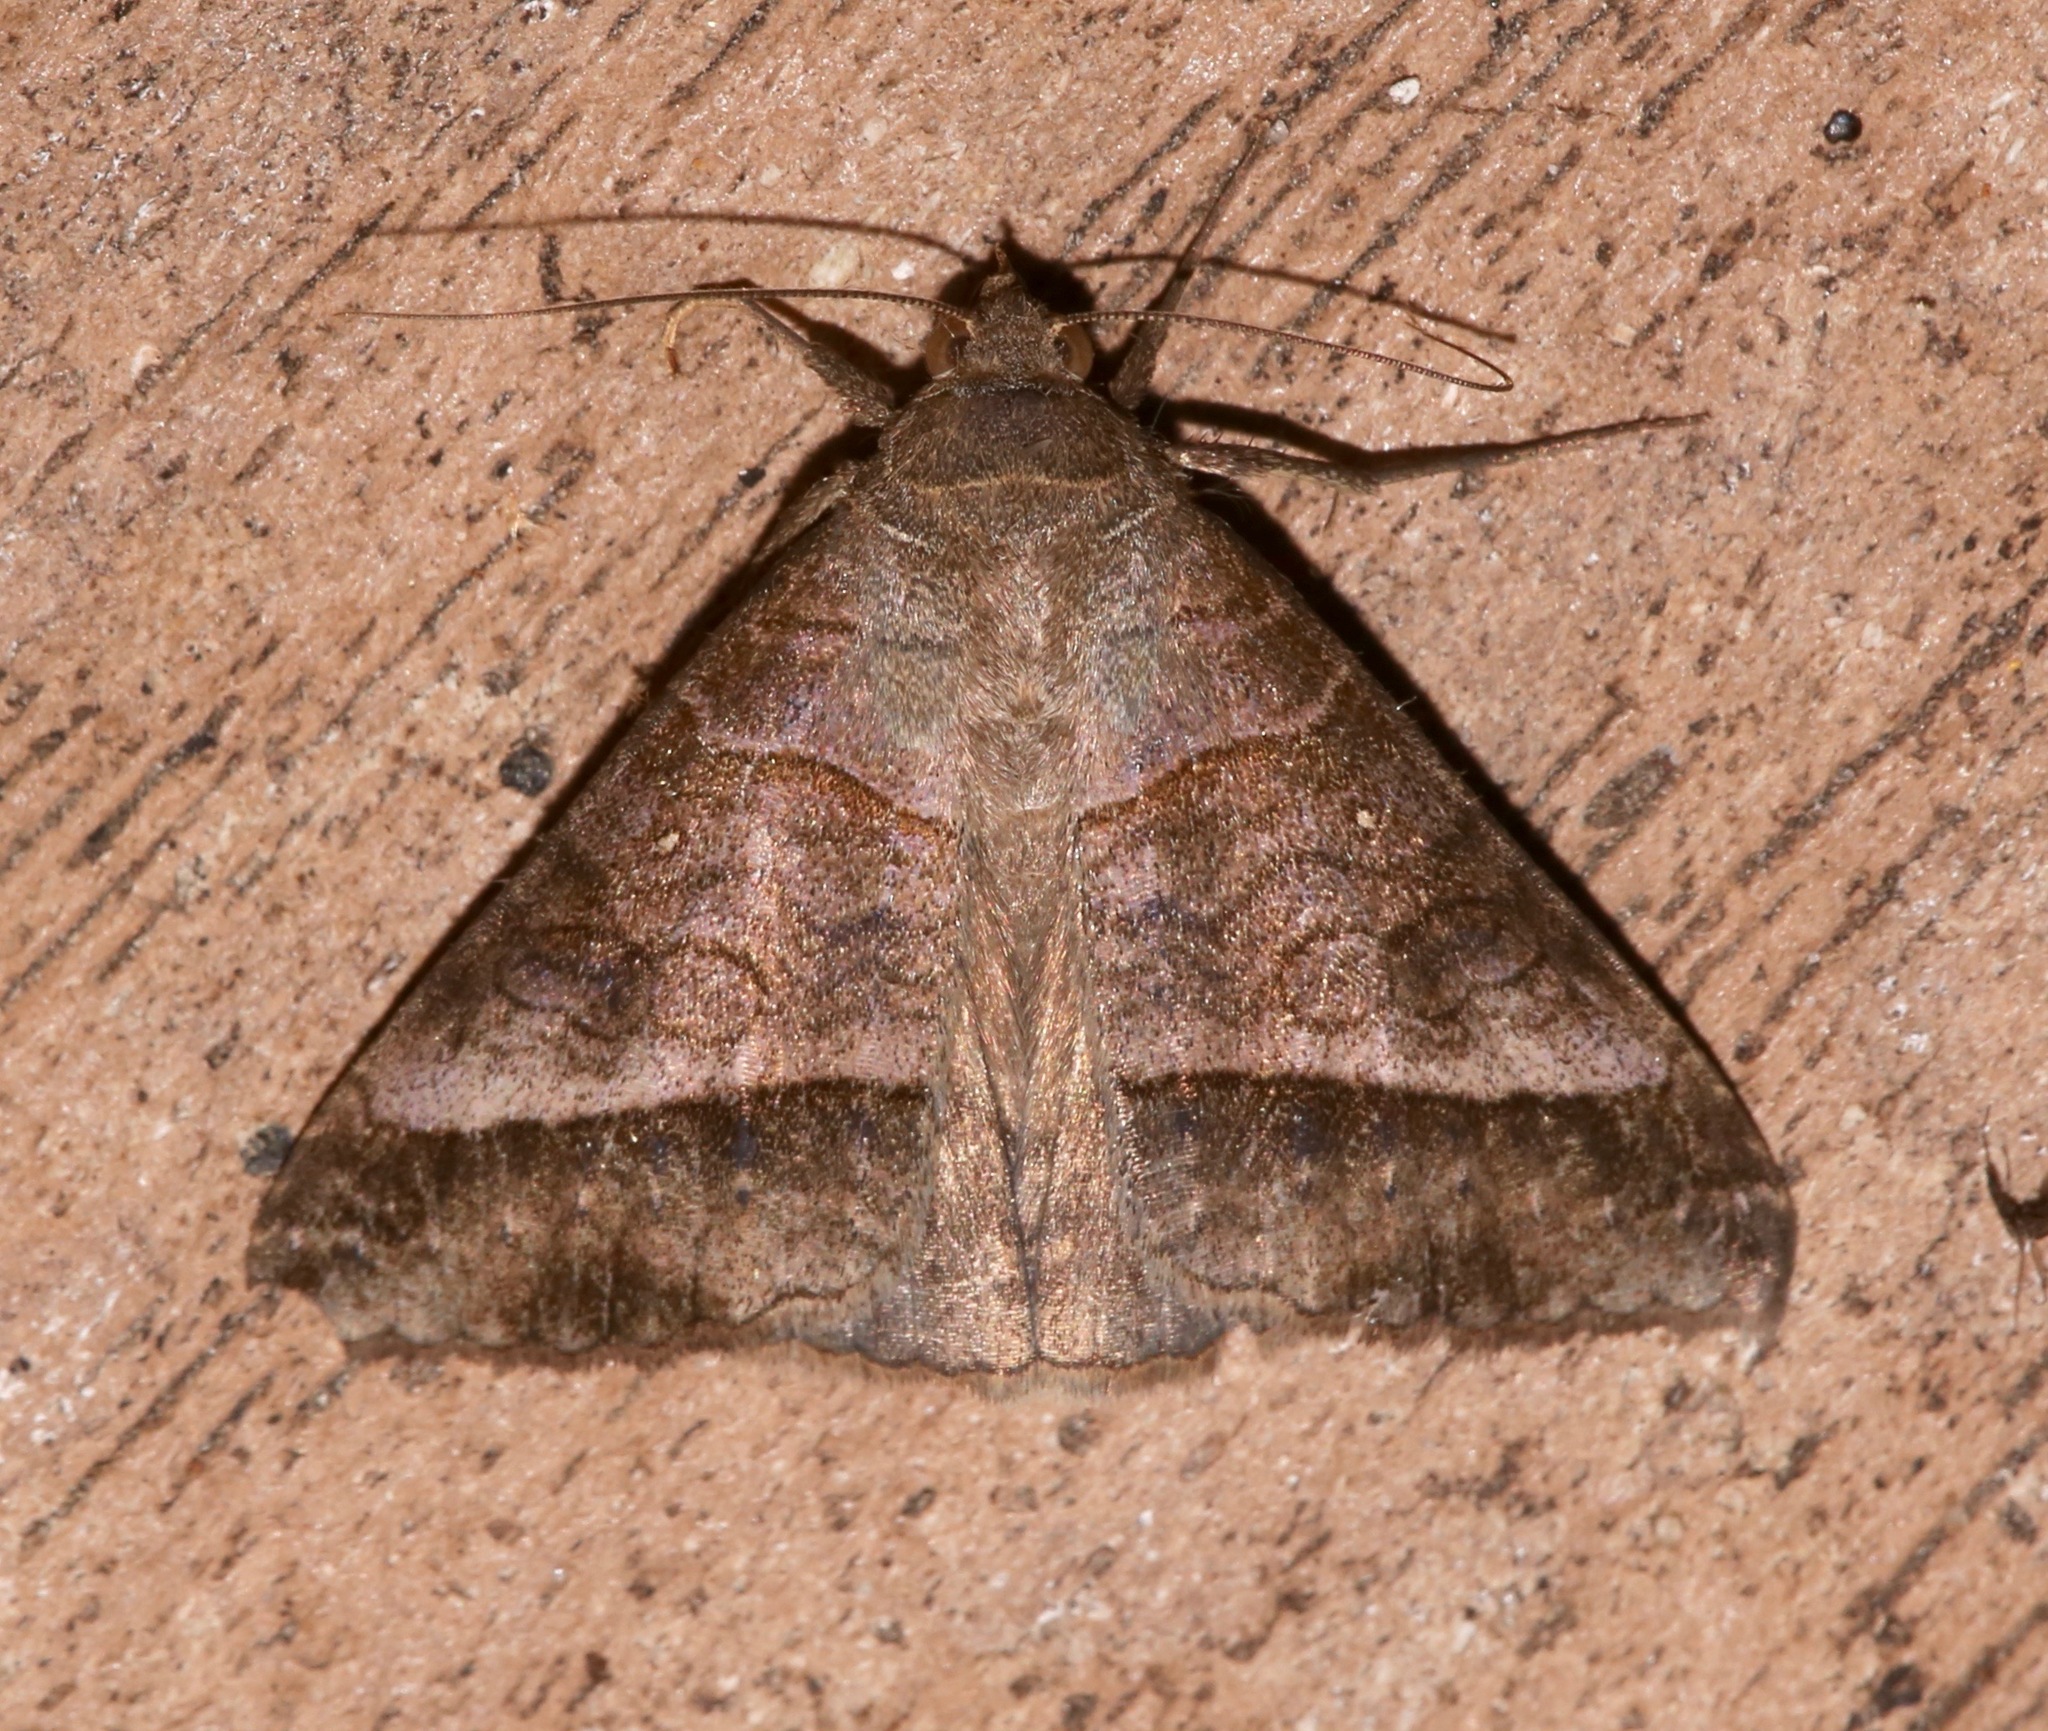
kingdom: Animalia
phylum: Arthropoda
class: Insecta
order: Lepidoptera
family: Erebidae
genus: Mocis
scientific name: Mocis latipes
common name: Striped grass looper
